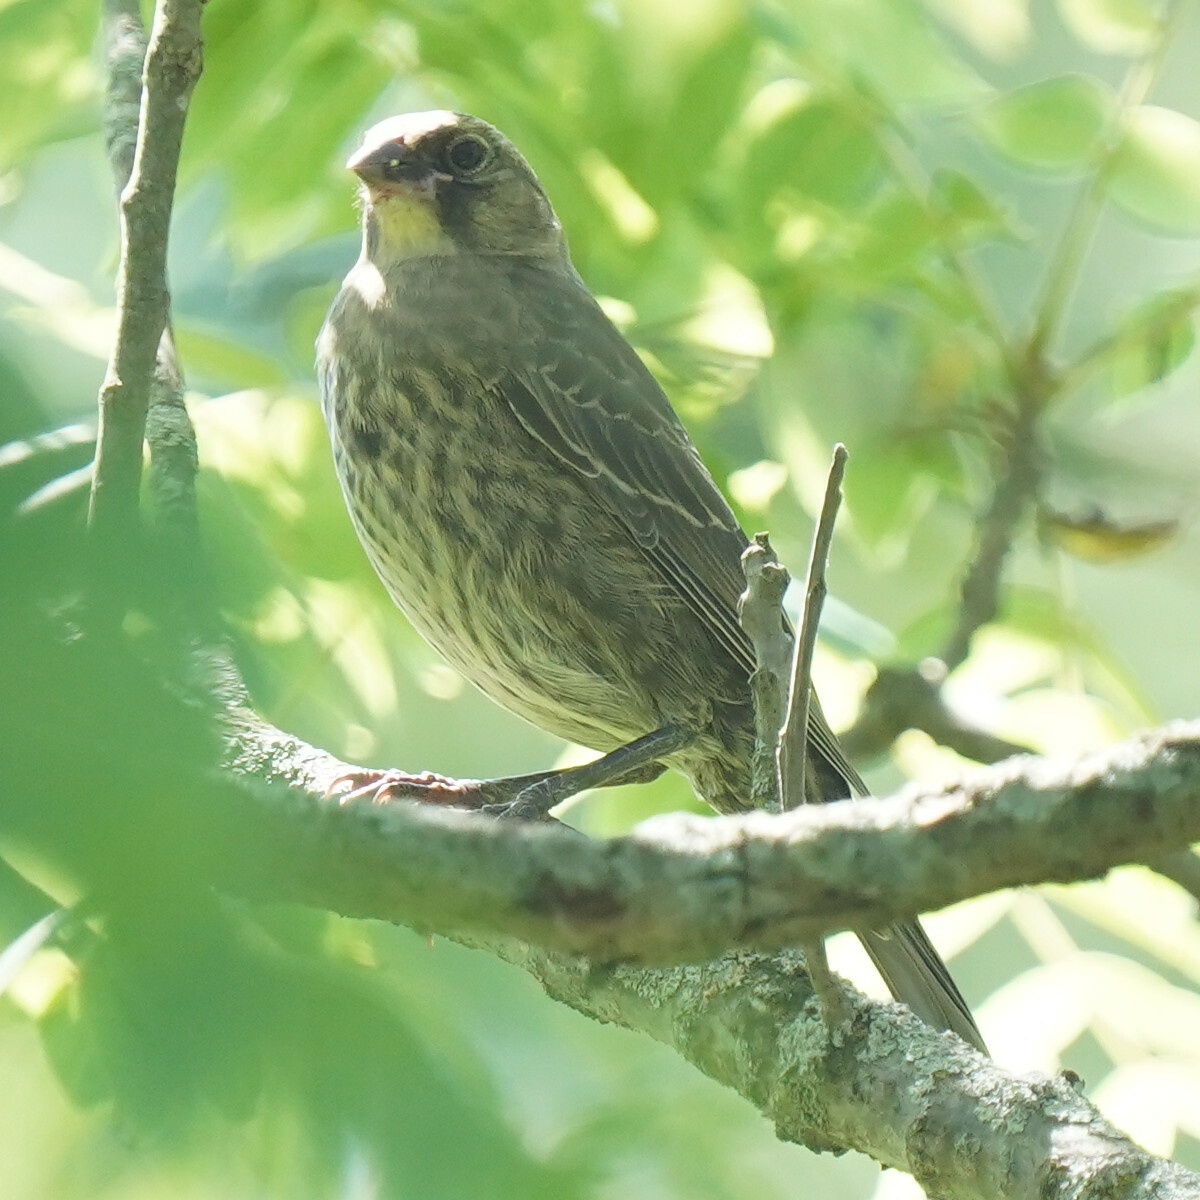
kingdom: Animalia
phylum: Chordata
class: Aves
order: Passeriformes
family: Icteridae
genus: Molothrus
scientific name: Molothrus ater
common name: Brown-headed cowbird
